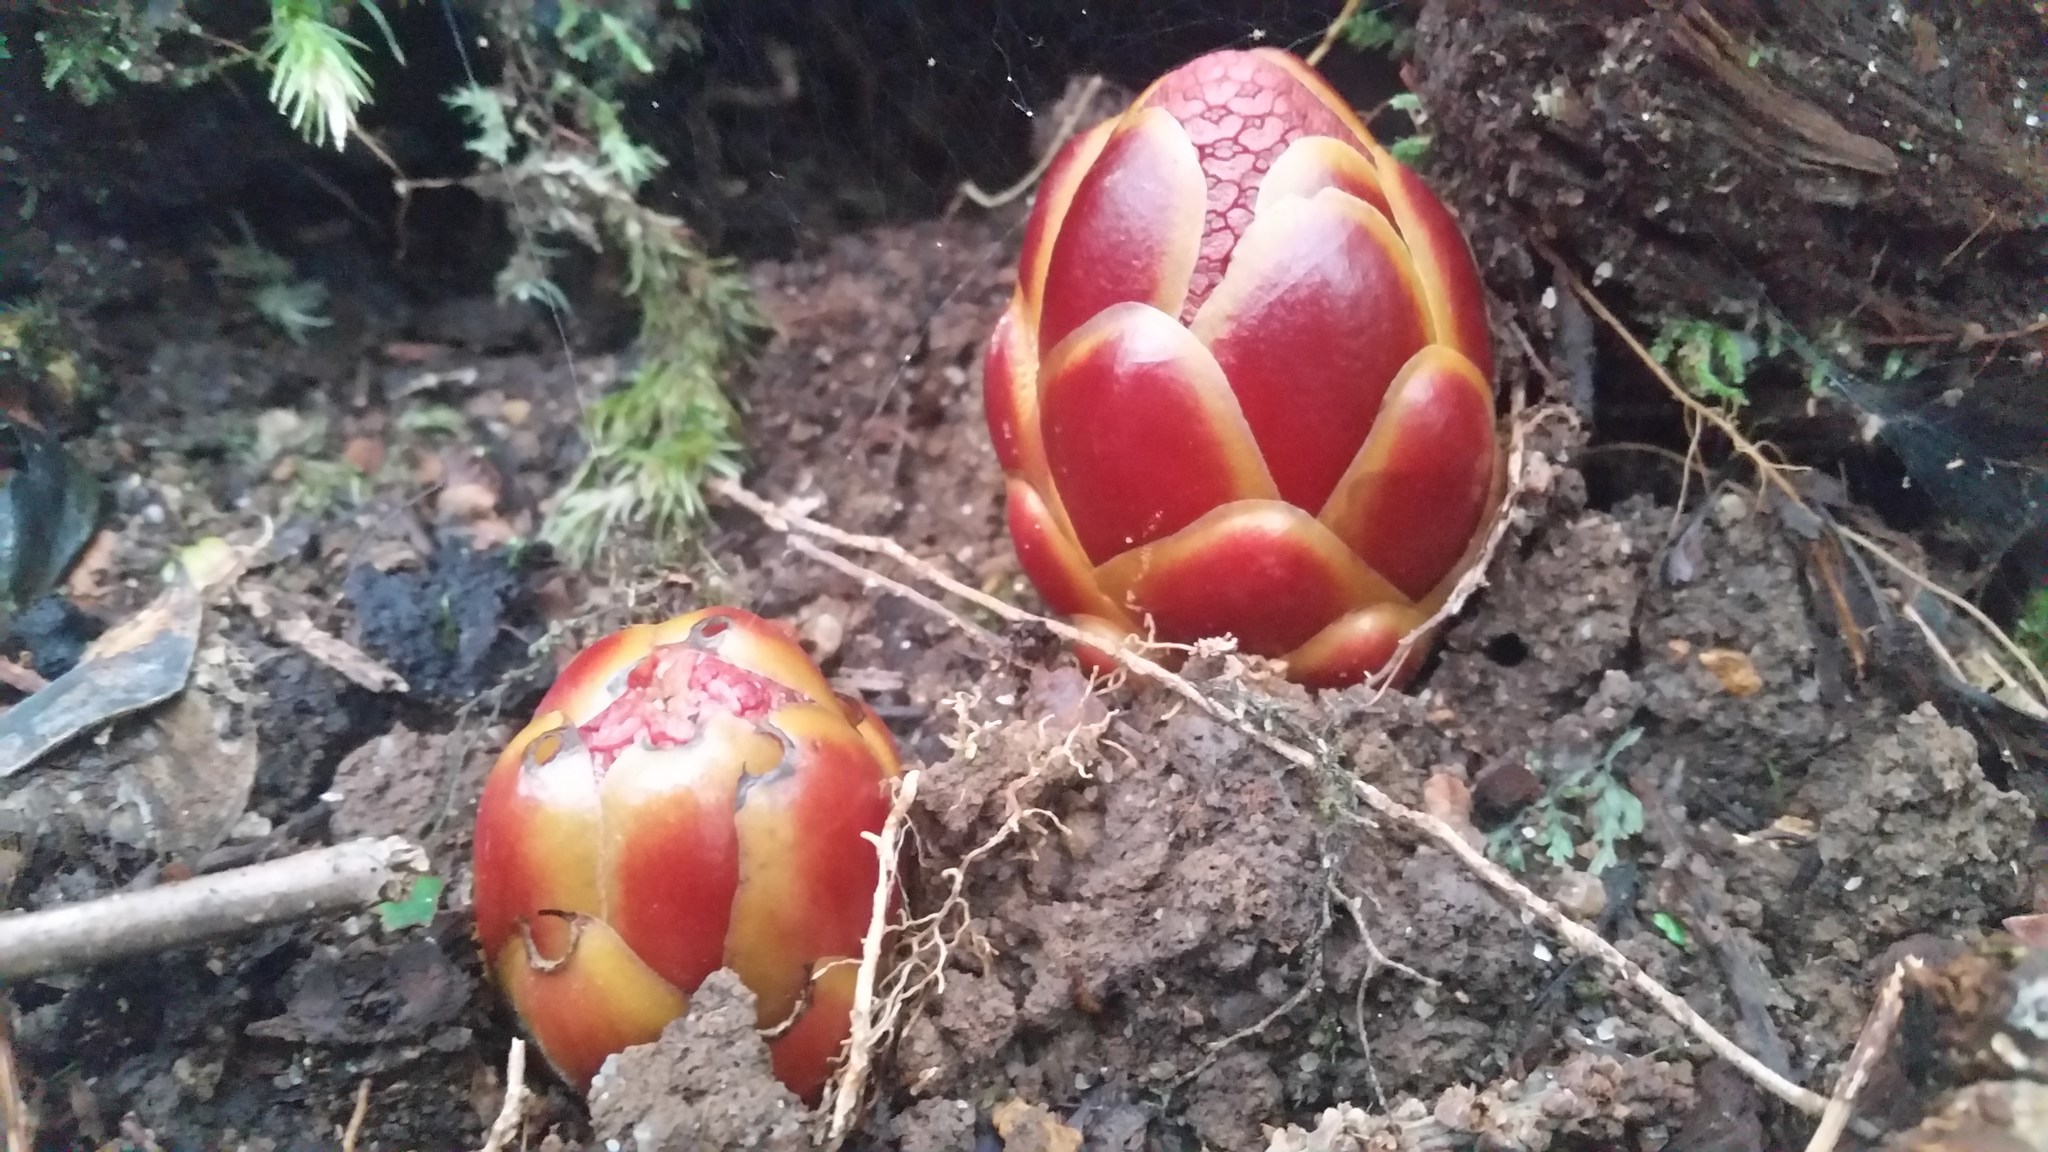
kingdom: Plantae
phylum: Tracheophyta
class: Magnoliopsida
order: Santalales
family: Balanophoraceae
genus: Balanophora
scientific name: Balanophora fungosa
